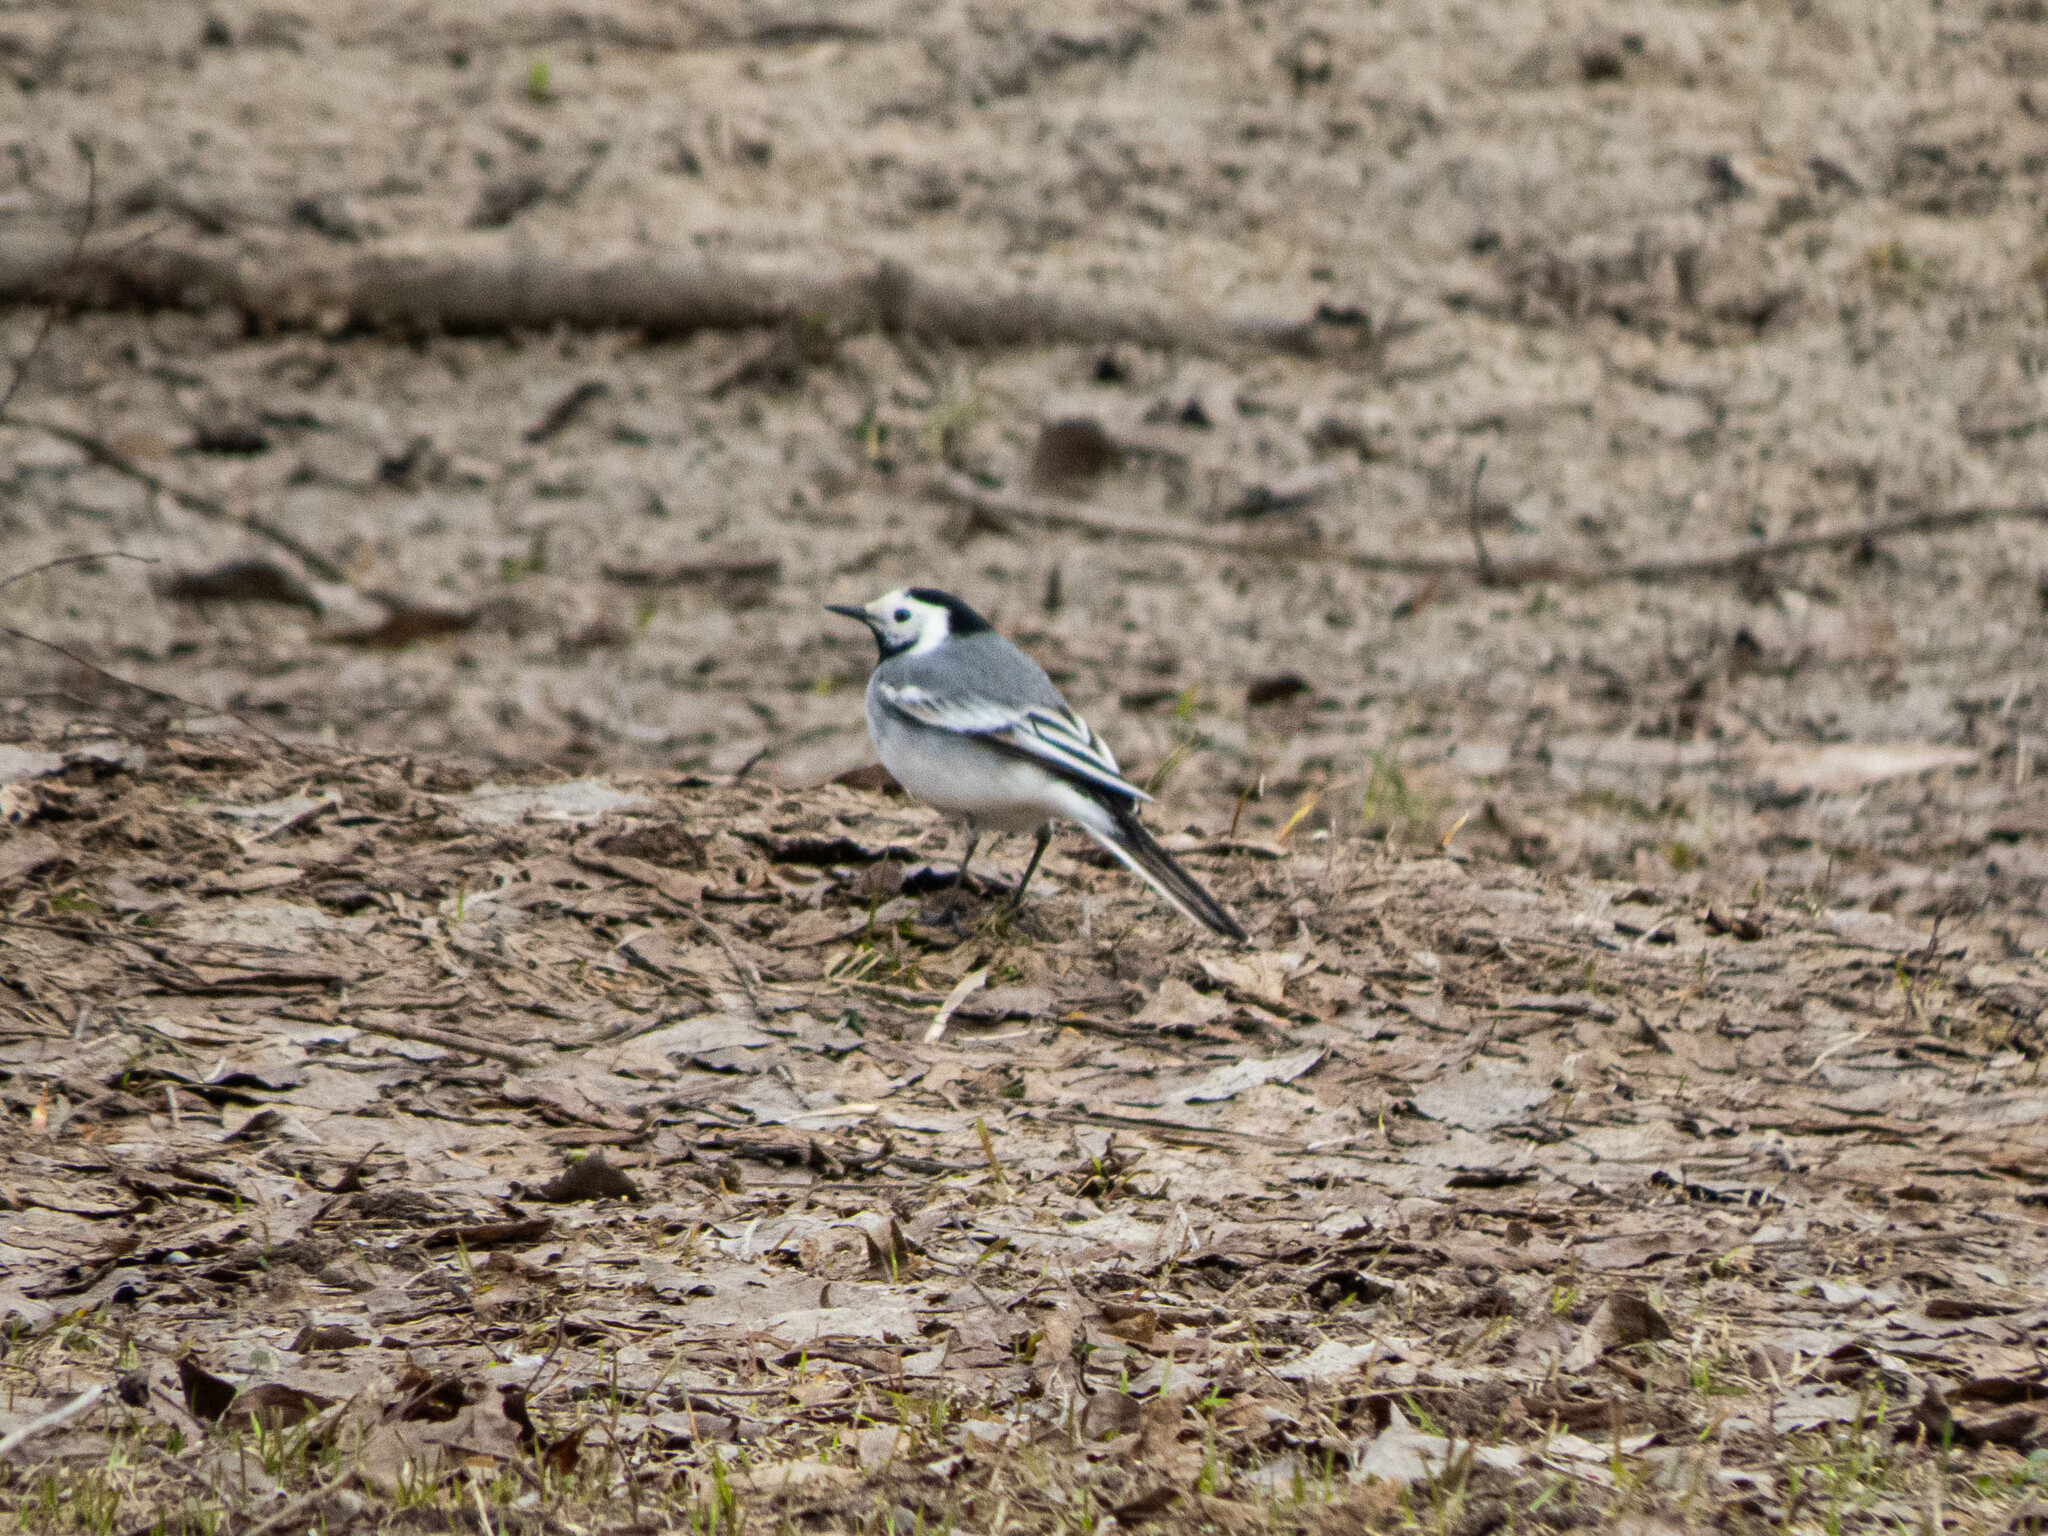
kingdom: Animalia
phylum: Chordata
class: Aves
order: Passeriformes
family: Motacillidae
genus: Motacilla
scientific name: Motacilla alba
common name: White wagtail
